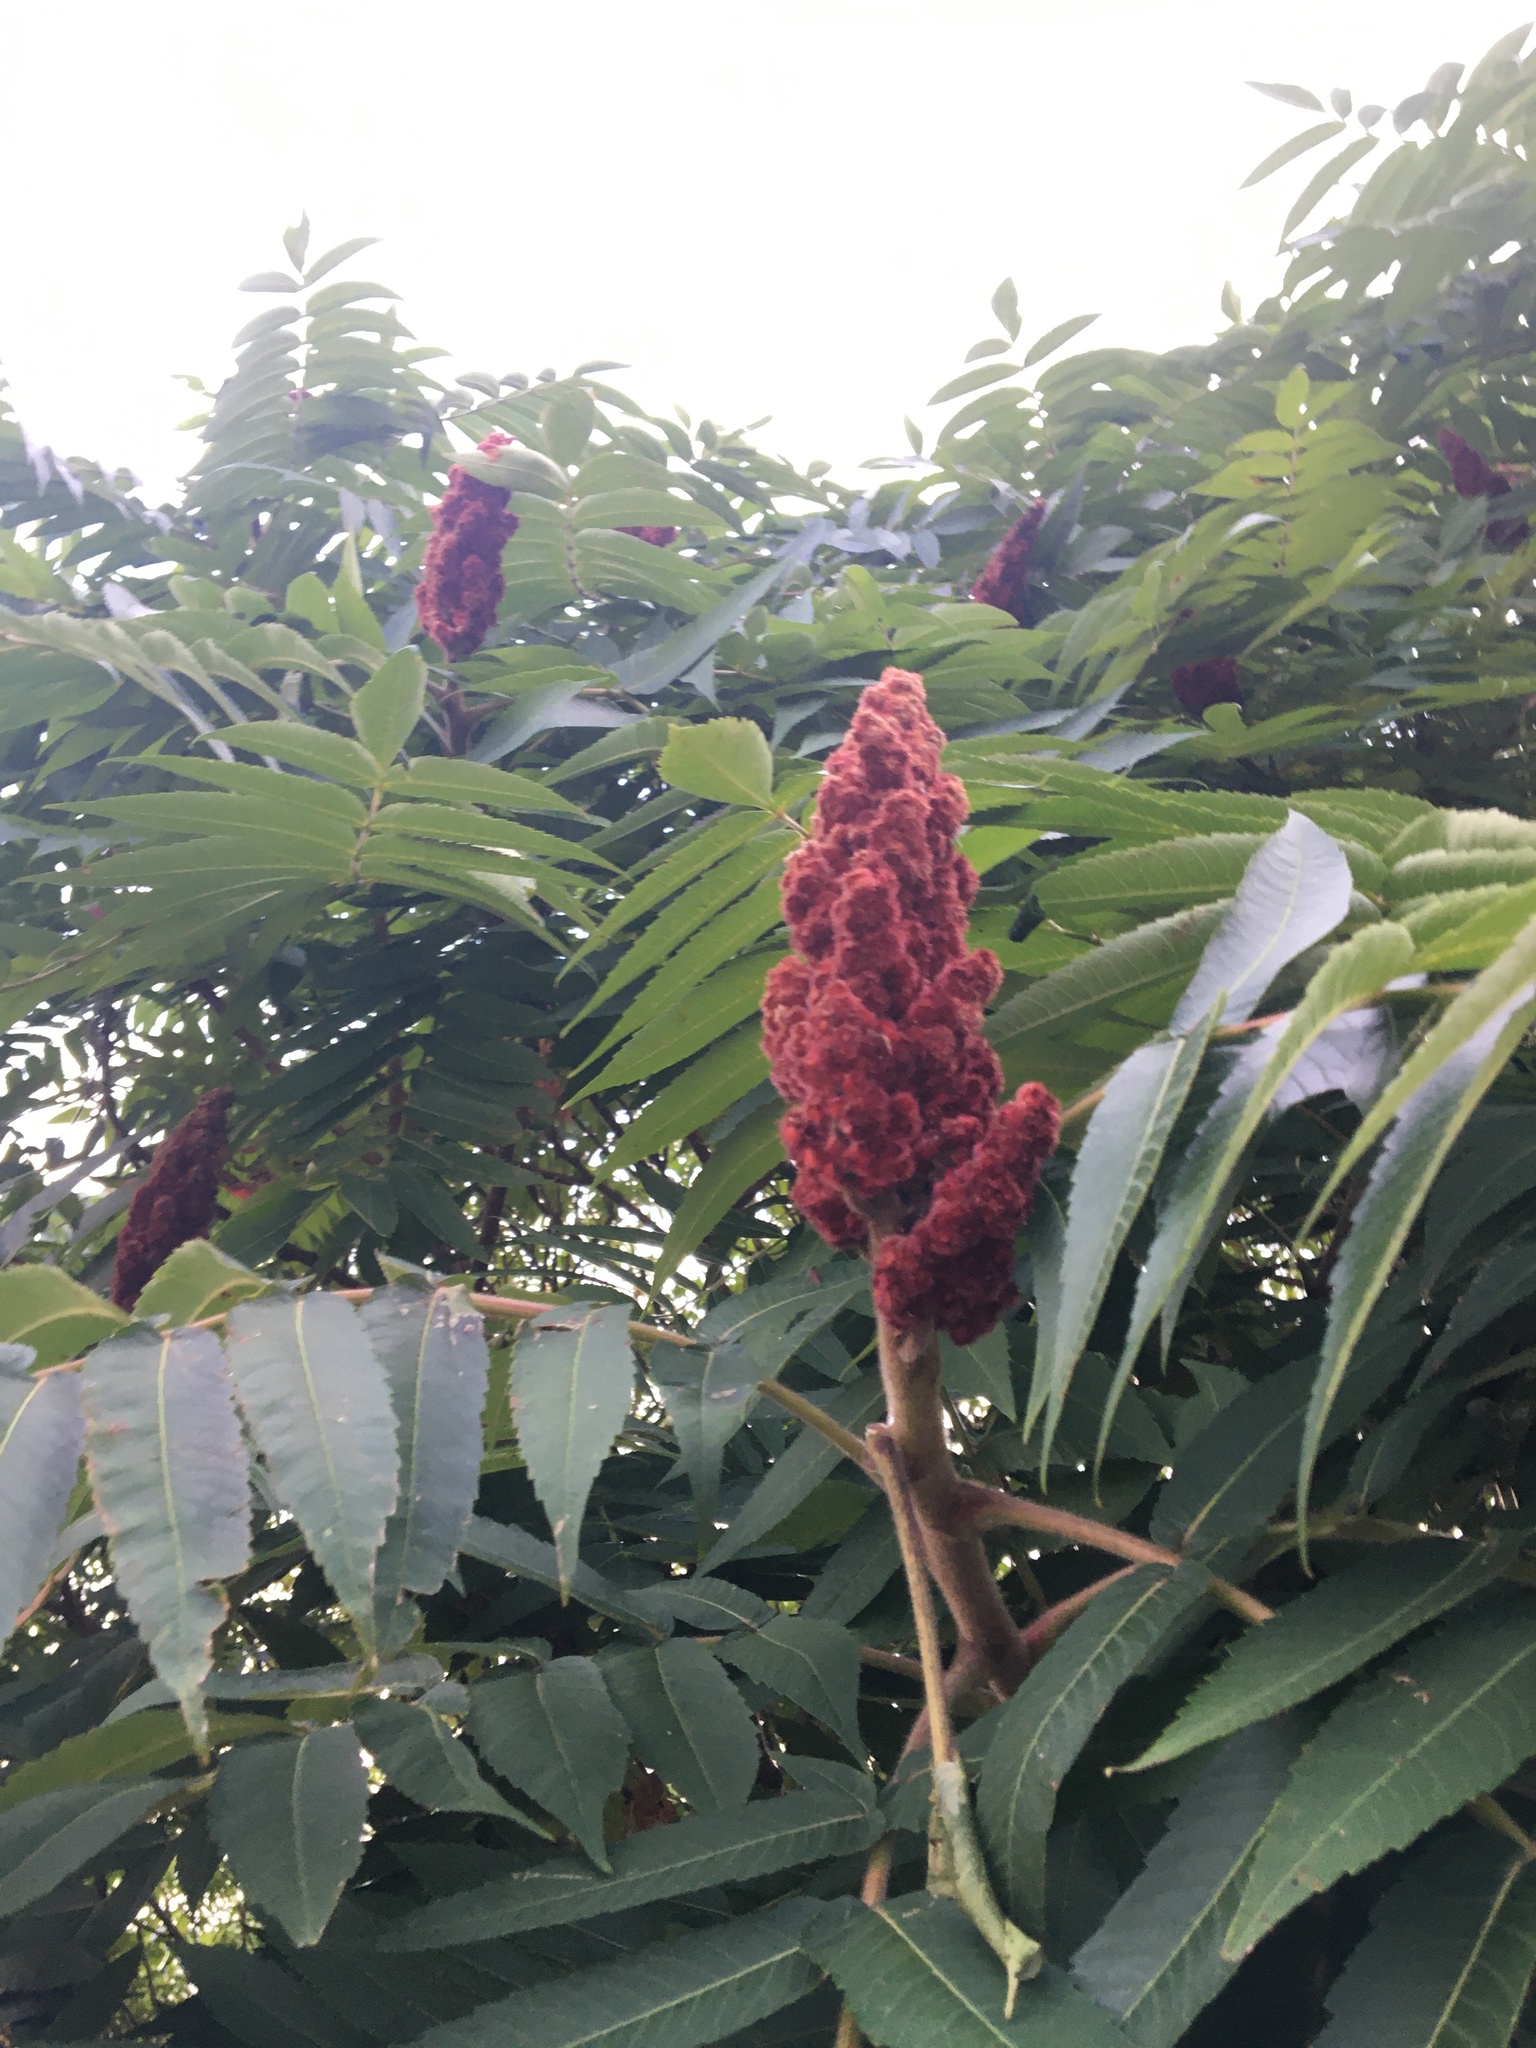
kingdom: Plantae
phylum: Tracheophyta
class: Magnoliopsida
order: Sapindales
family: Anacardiaceae
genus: Rhus
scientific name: Rhus typhina
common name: Staghorn sumac
